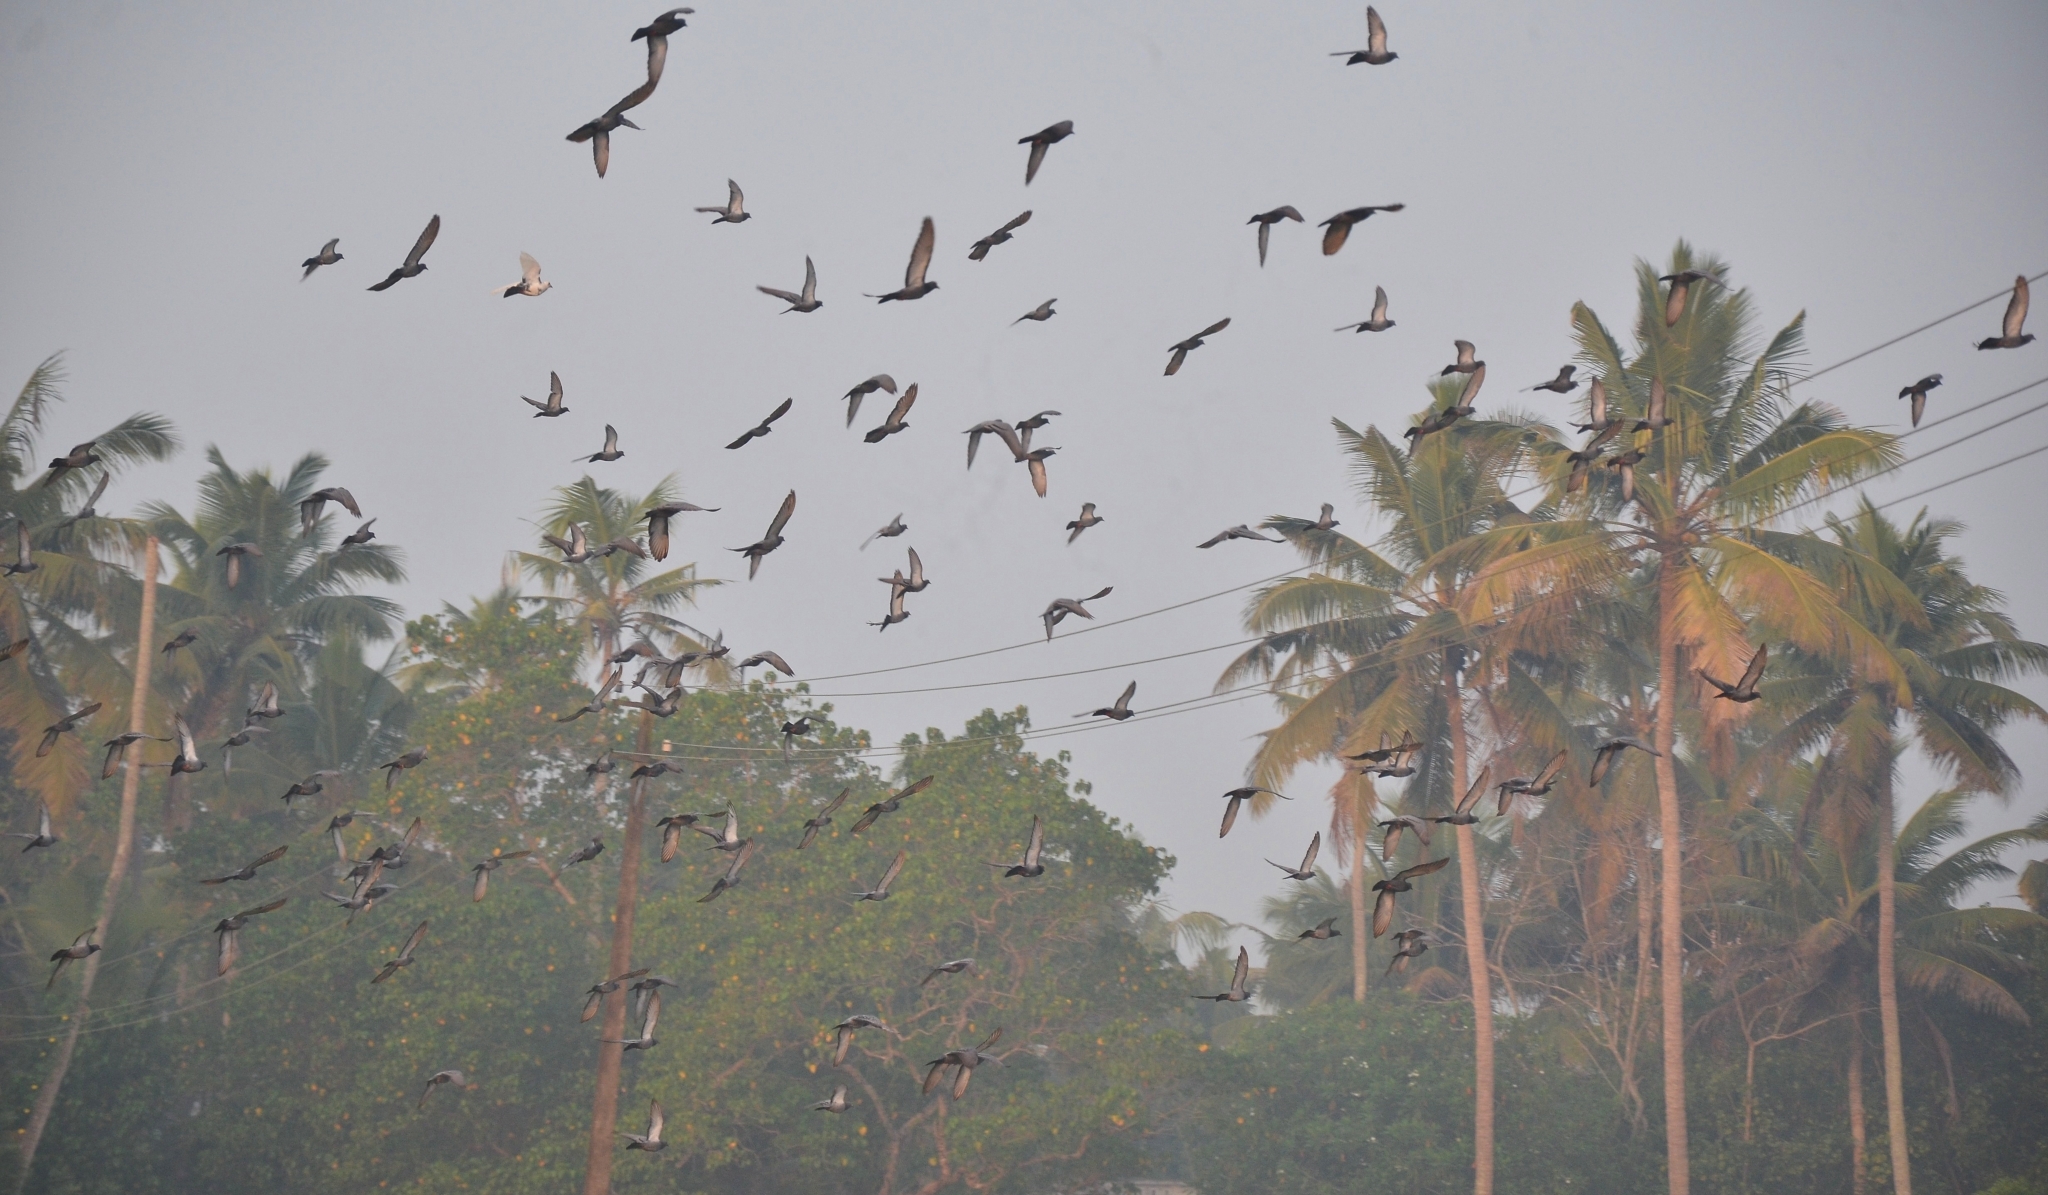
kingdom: Animalia
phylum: Chordata
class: Aves
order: Columbiformes
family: Columbidae
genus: Columba
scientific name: Columba livia
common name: Rock pigeon
